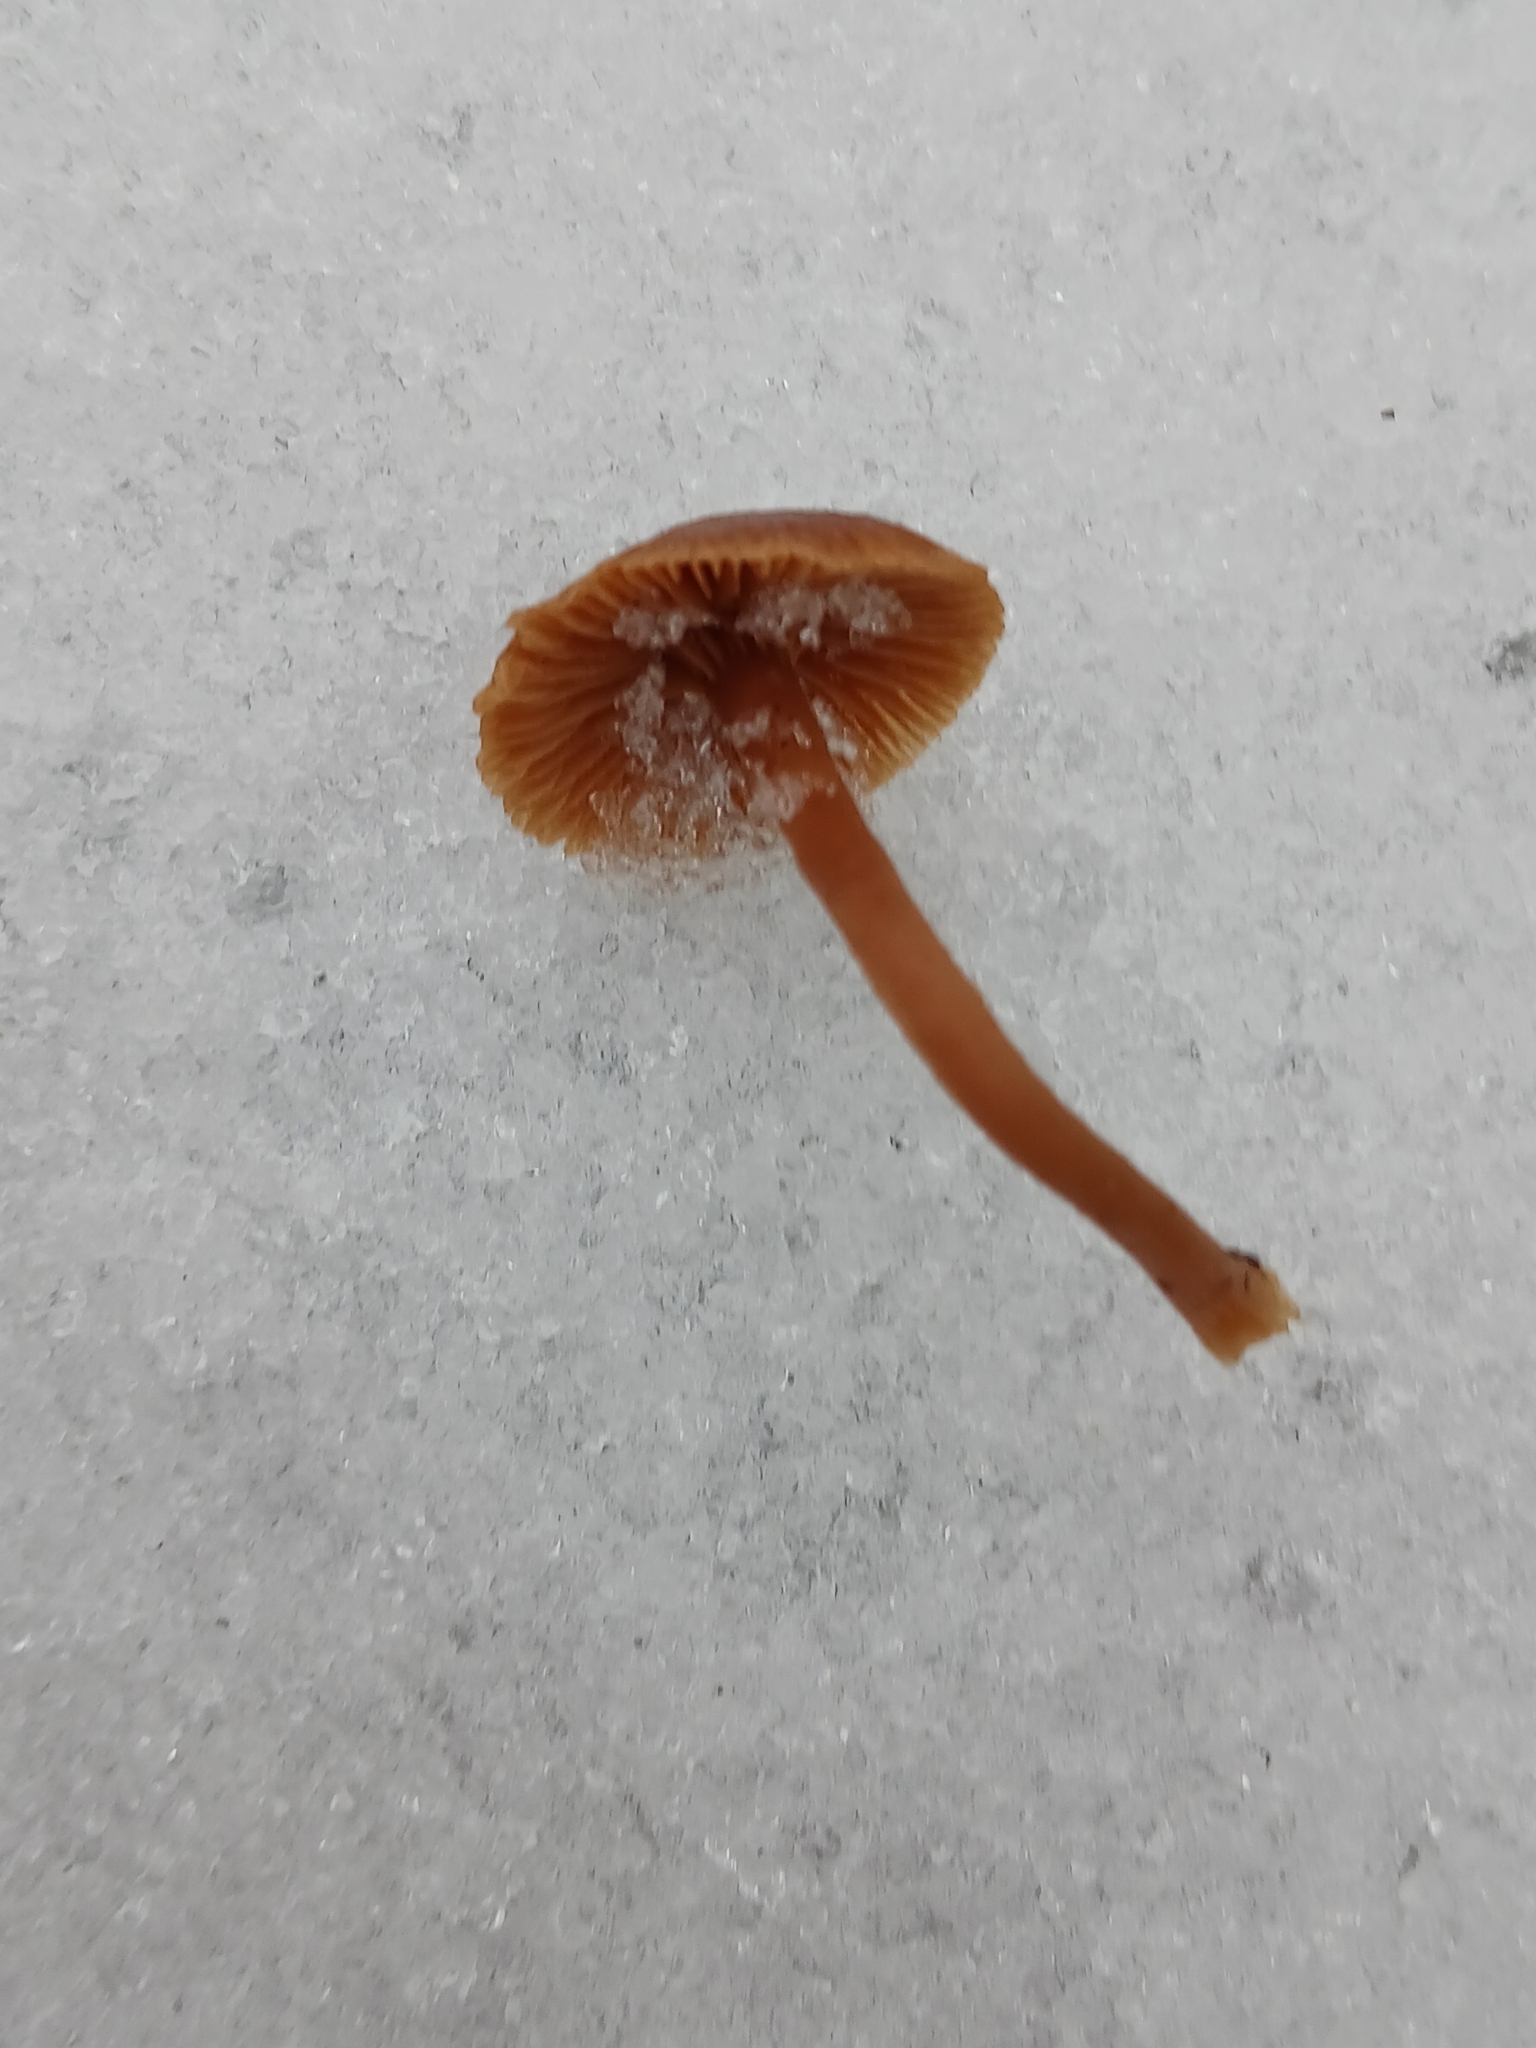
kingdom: Fungi
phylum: Basidiomycota
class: Agaricomycetes
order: Agaricales
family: Tubariaceae
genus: Tubaria
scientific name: Tubaria furfuracea
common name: Scurfy twiglet
